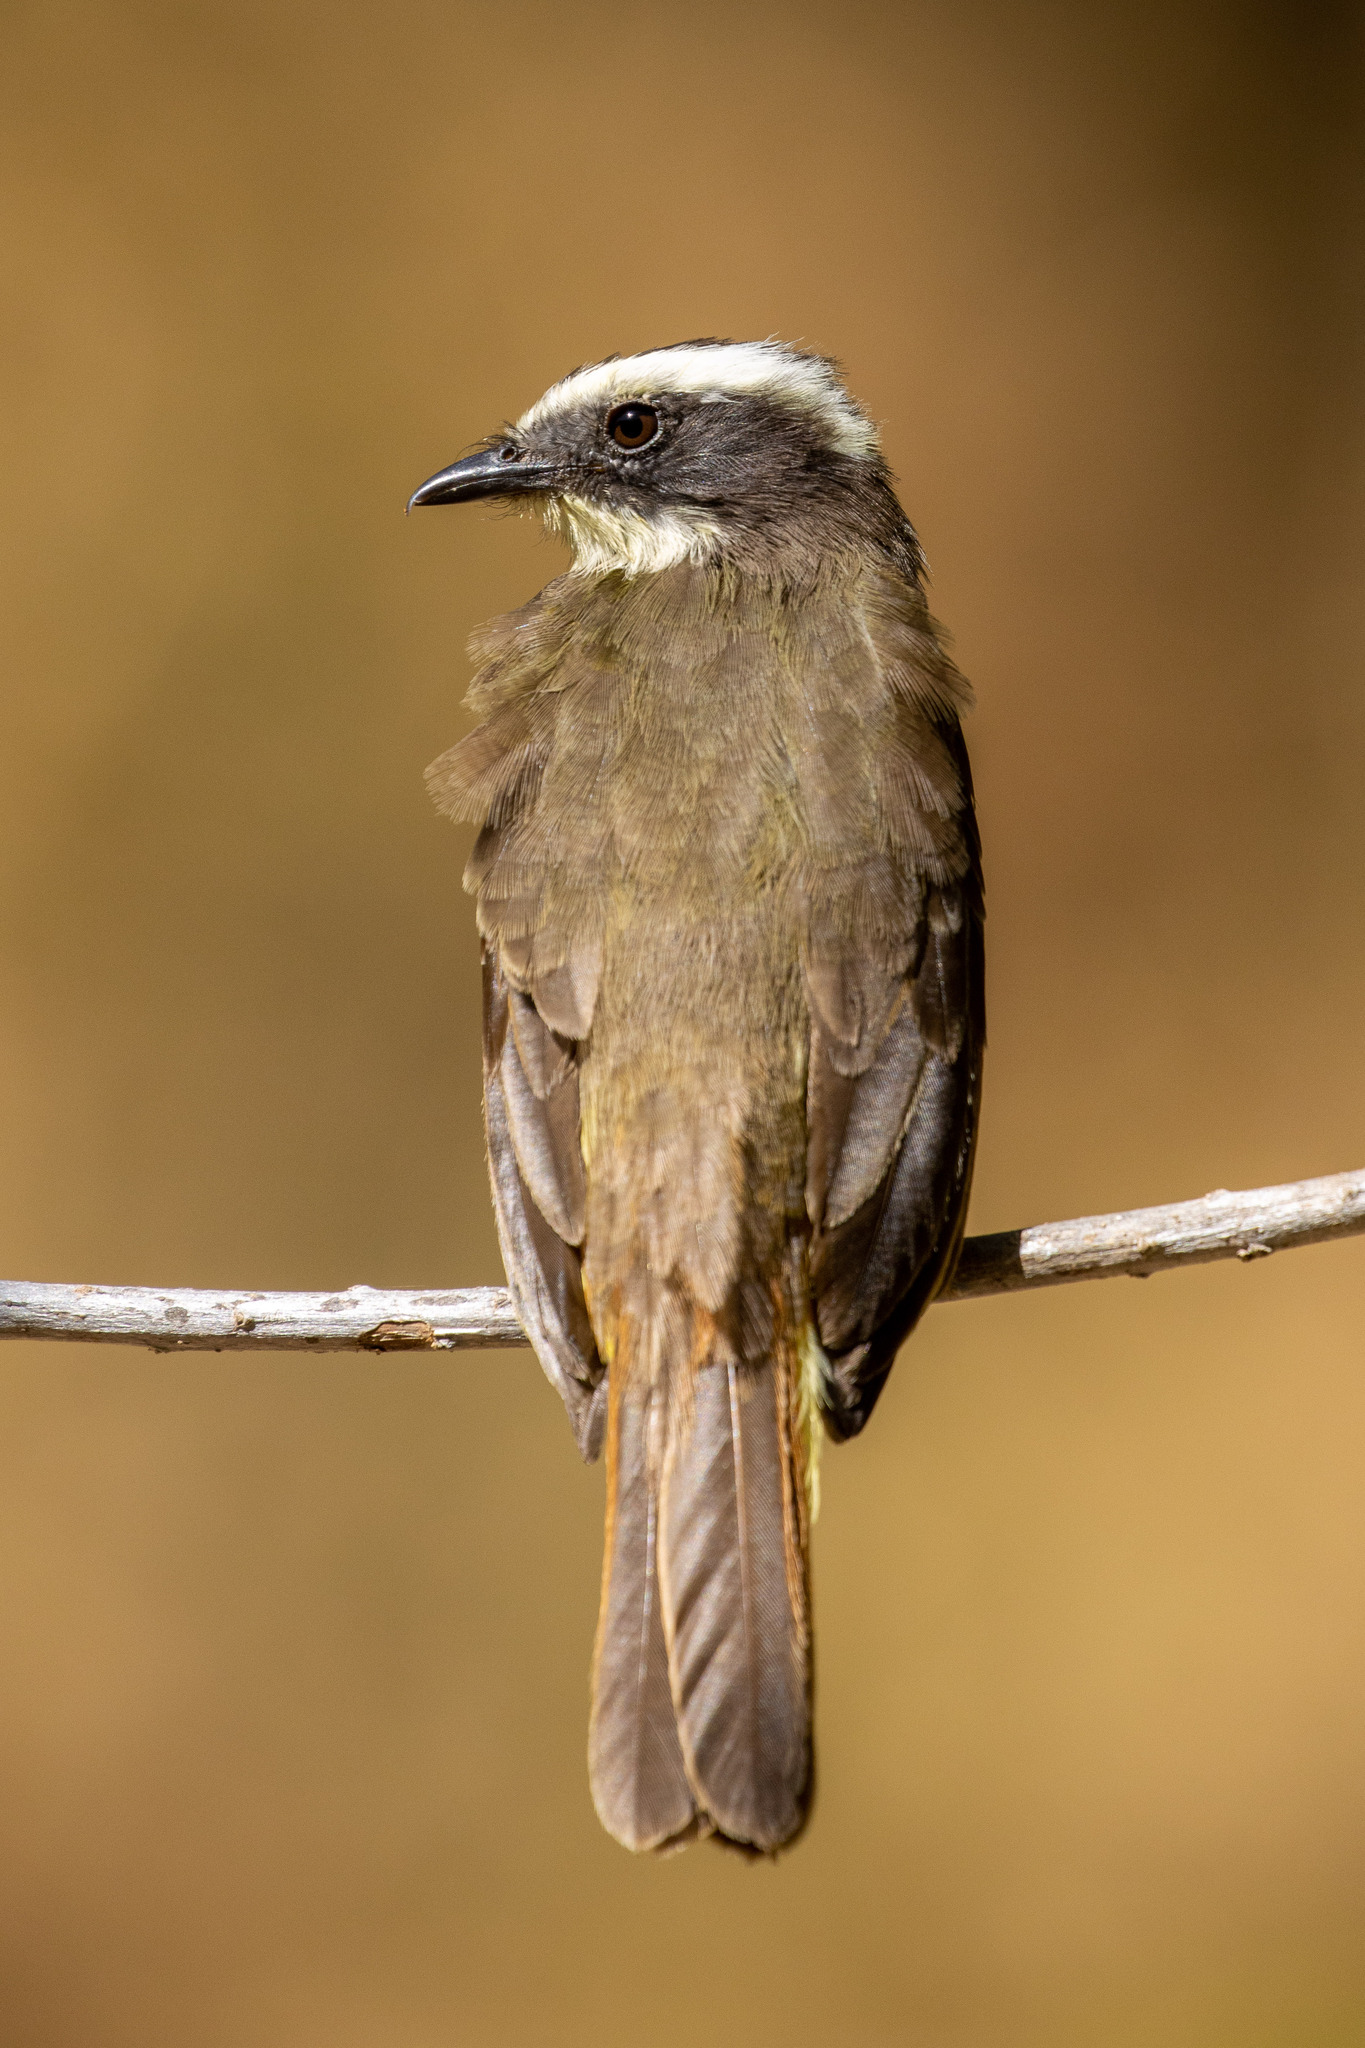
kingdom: Animalia
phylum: Chordata
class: Aves
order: Passeriformes
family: Tyrannidae
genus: Myiozetetes
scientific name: Myiozetetes cayanensis
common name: Rusty-margined flycatcher
